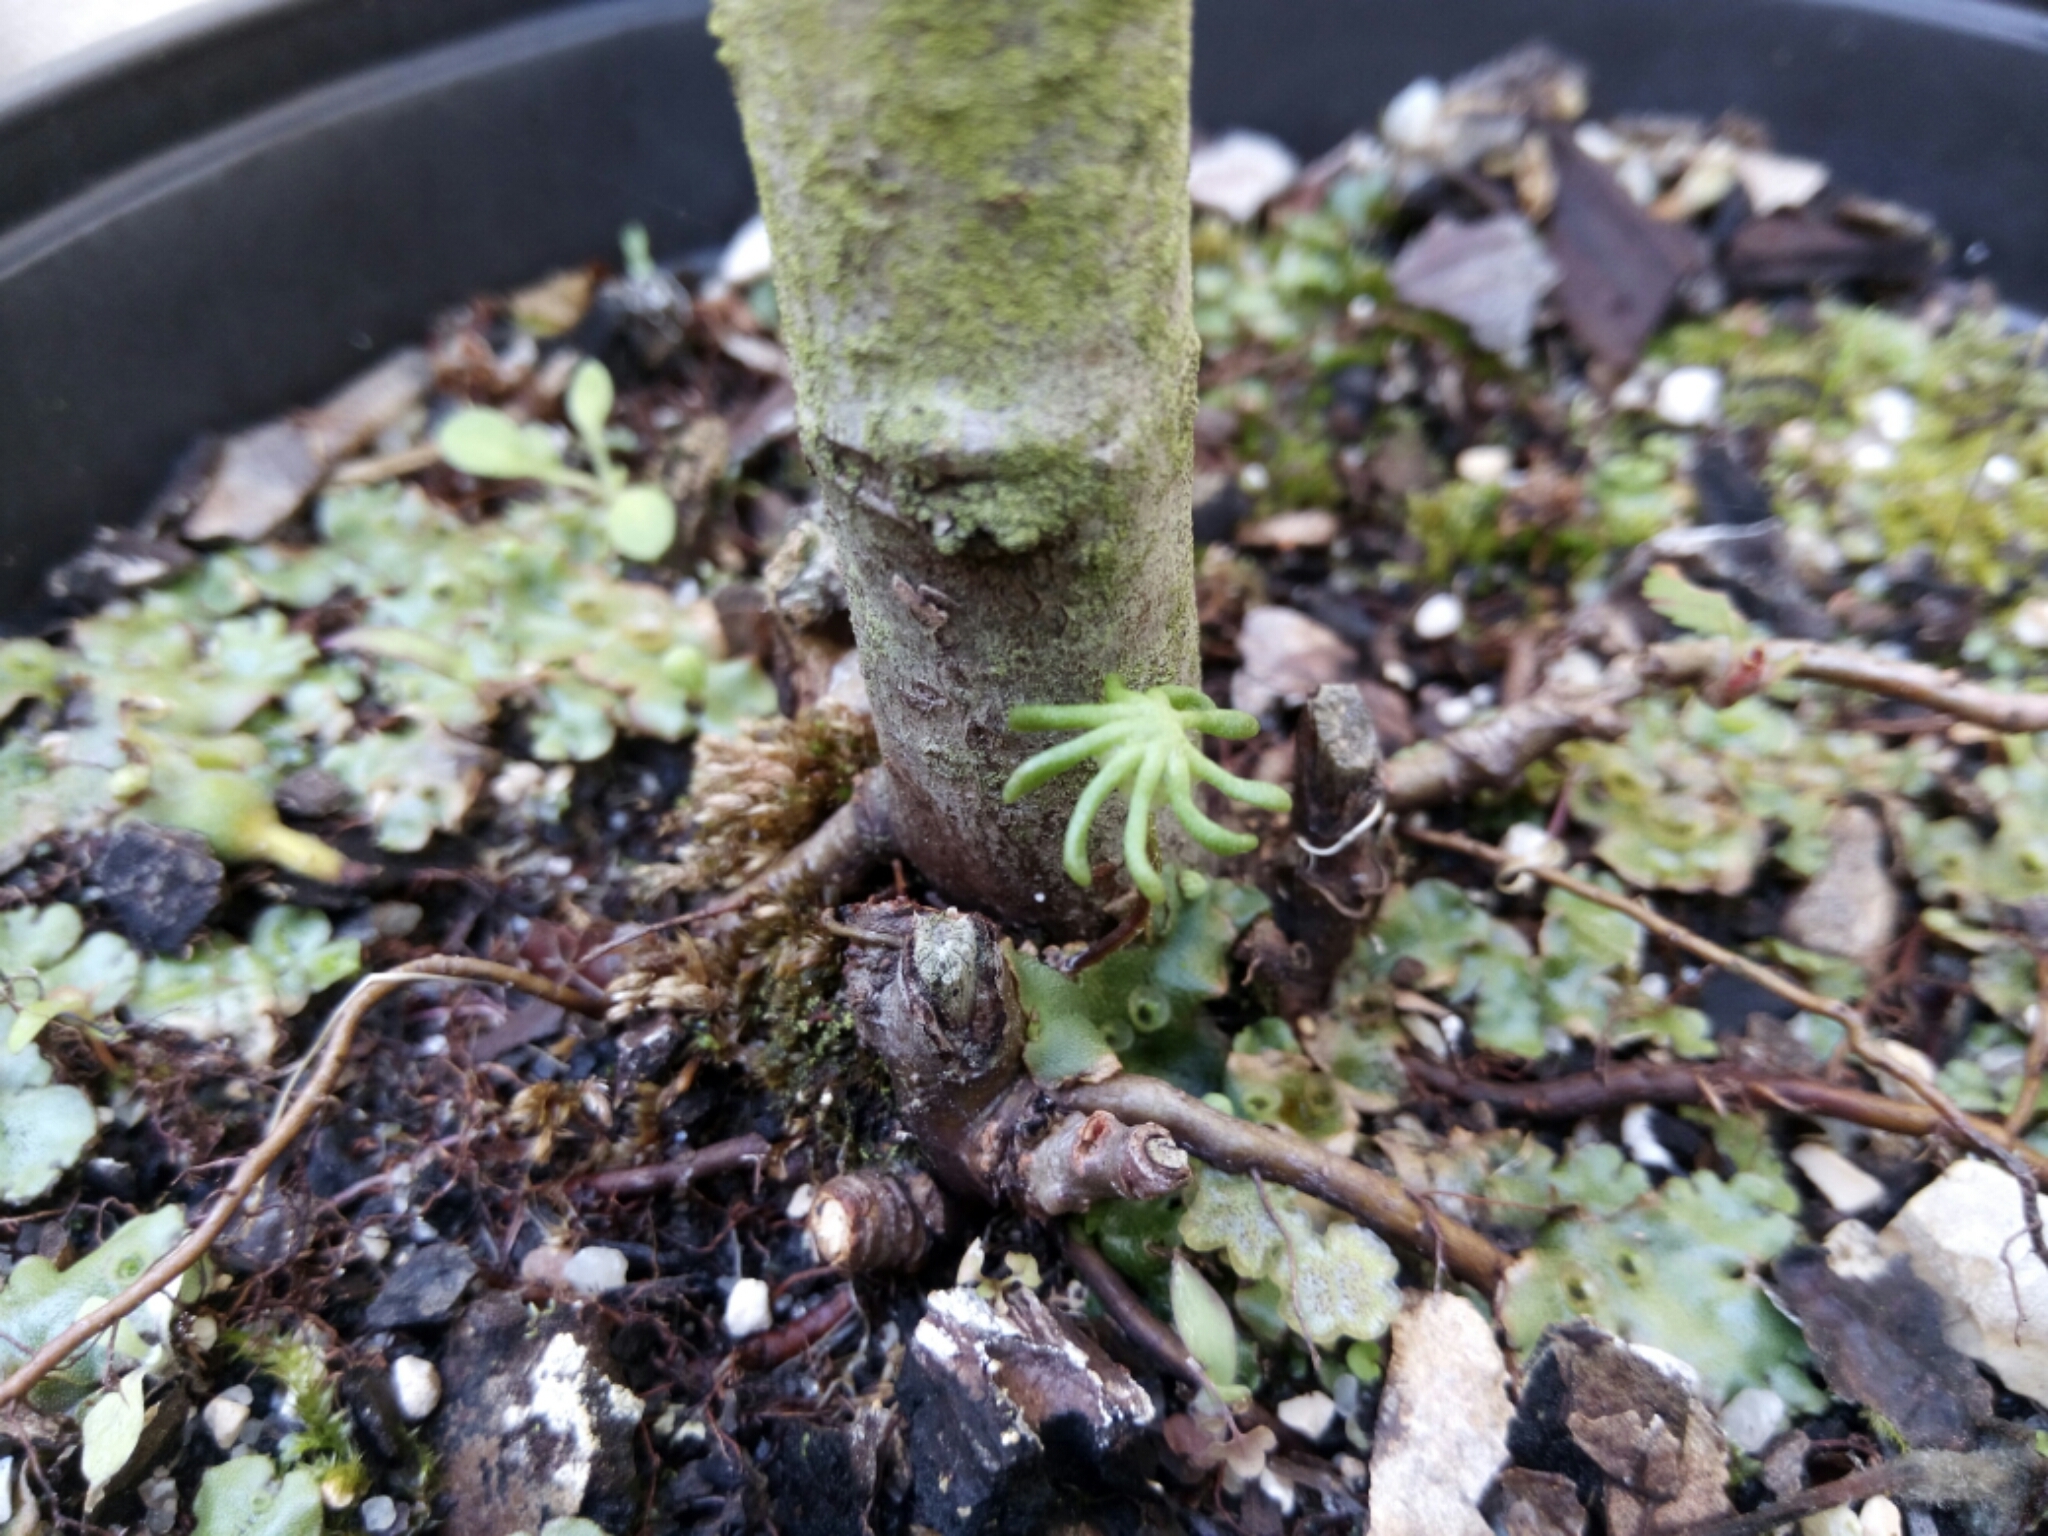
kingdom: Plantae
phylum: Marchantiophyta
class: Marchantiopsida
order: Marchantiales
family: Marchantiaceae
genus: Marchantia
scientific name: Marchantia polymorpha
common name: Common liverwort
